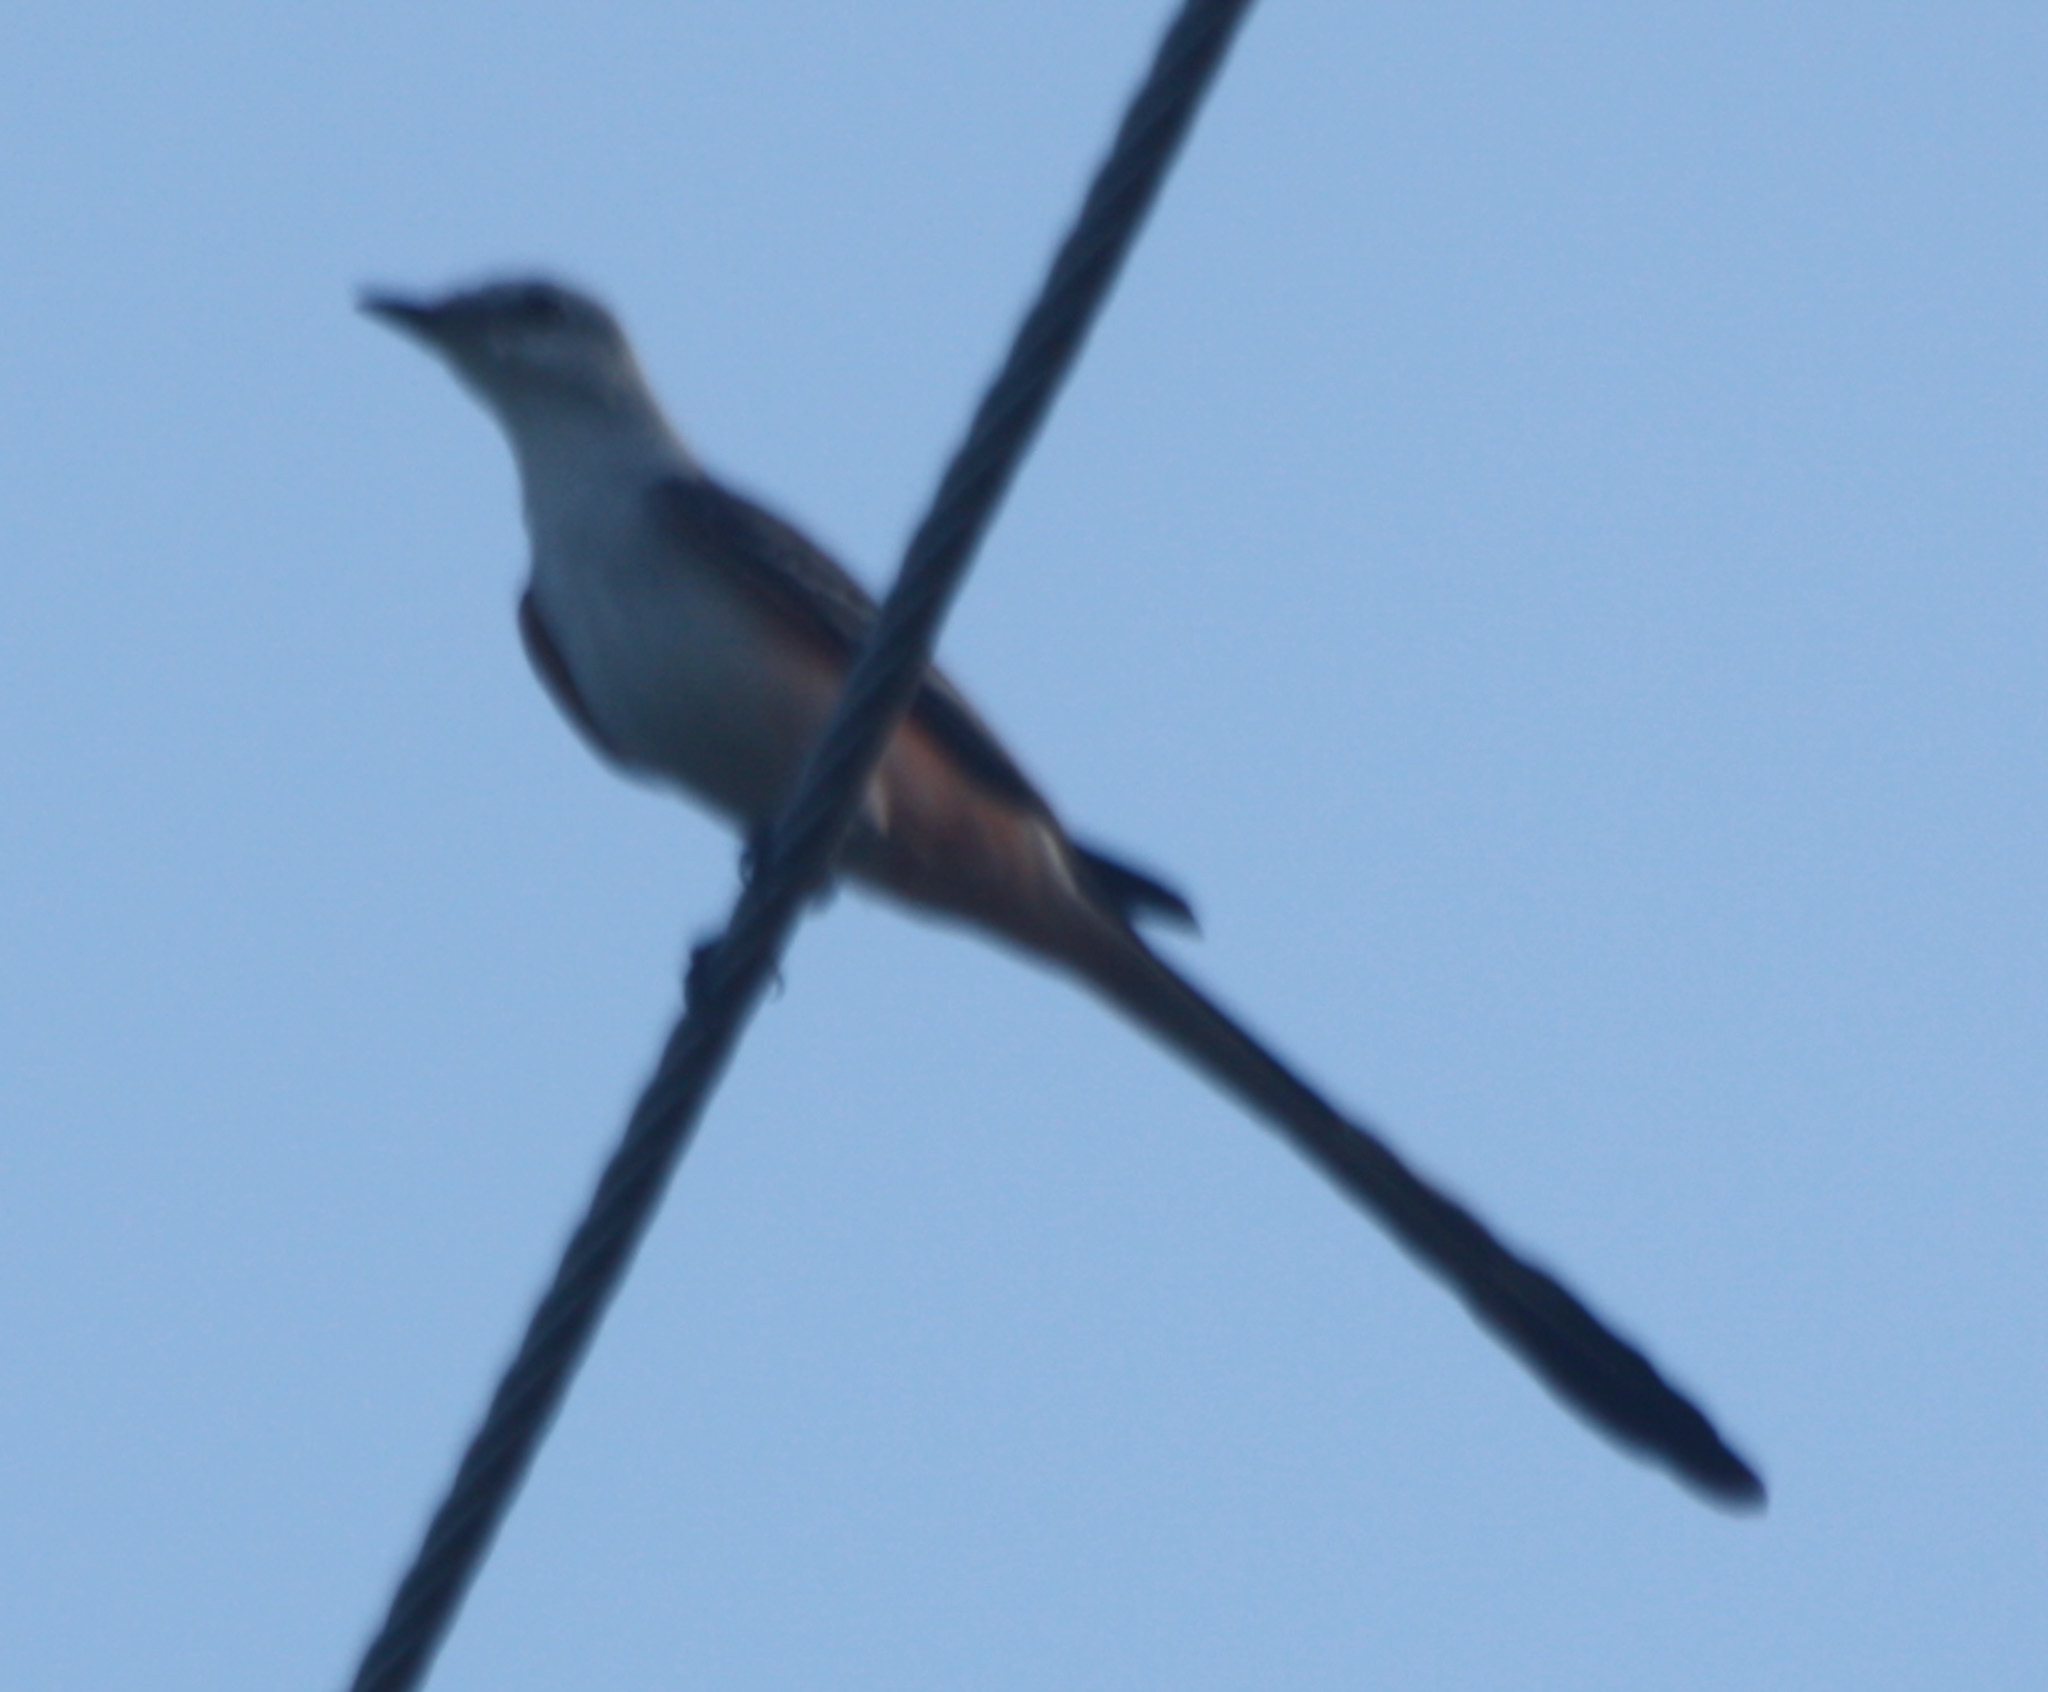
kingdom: Animalia
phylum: Chordata
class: Aves
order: Passeriformes
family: Tyrannidae
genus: Tyrannus
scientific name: Tyrannus forficatus
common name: Scissor-tailed flycatcher
